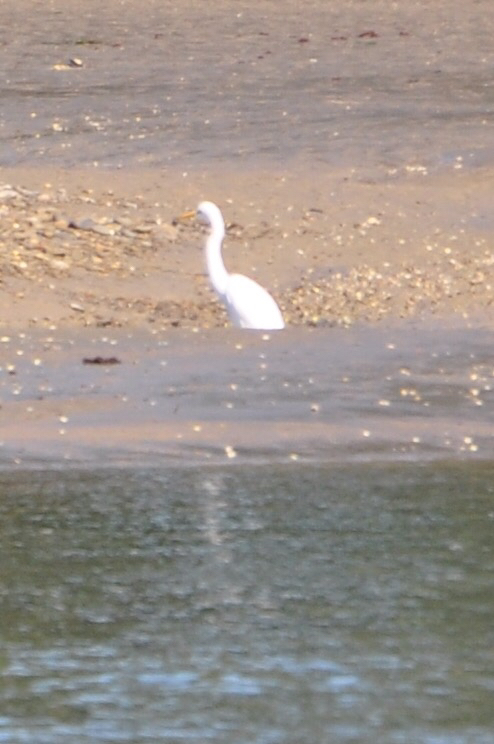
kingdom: Animalia
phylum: Chordata
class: Aves
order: Pelecaniformes
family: Ardeidae
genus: Ardea
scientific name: Ardea modesta
